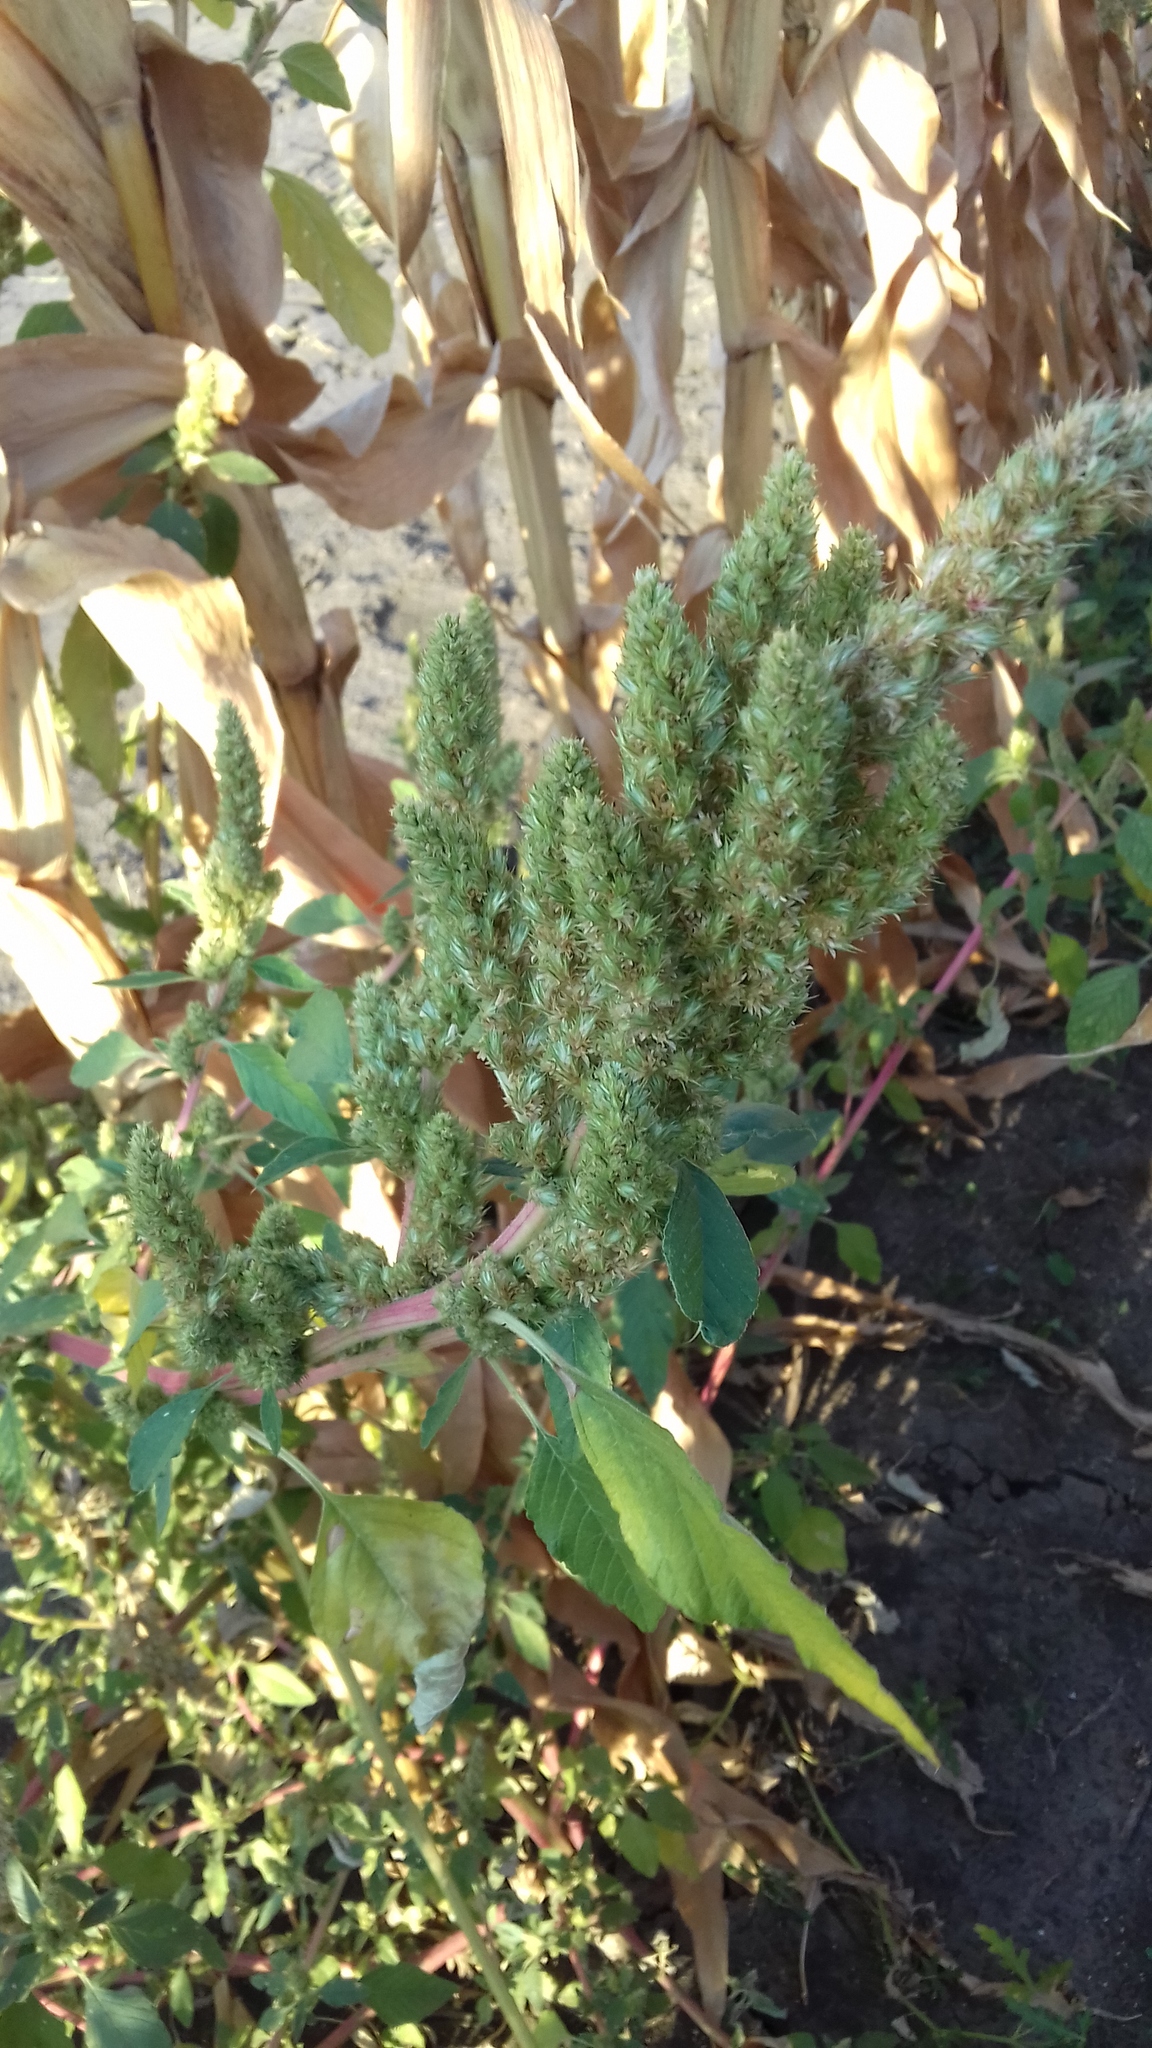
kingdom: Plantae
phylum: Tracheophyta
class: Magnoliopsida
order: Caryophyllales
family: Amaranthaceae
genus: Amaranthus
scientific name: Amaranthus retroflexus
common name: Redroot amaranth
